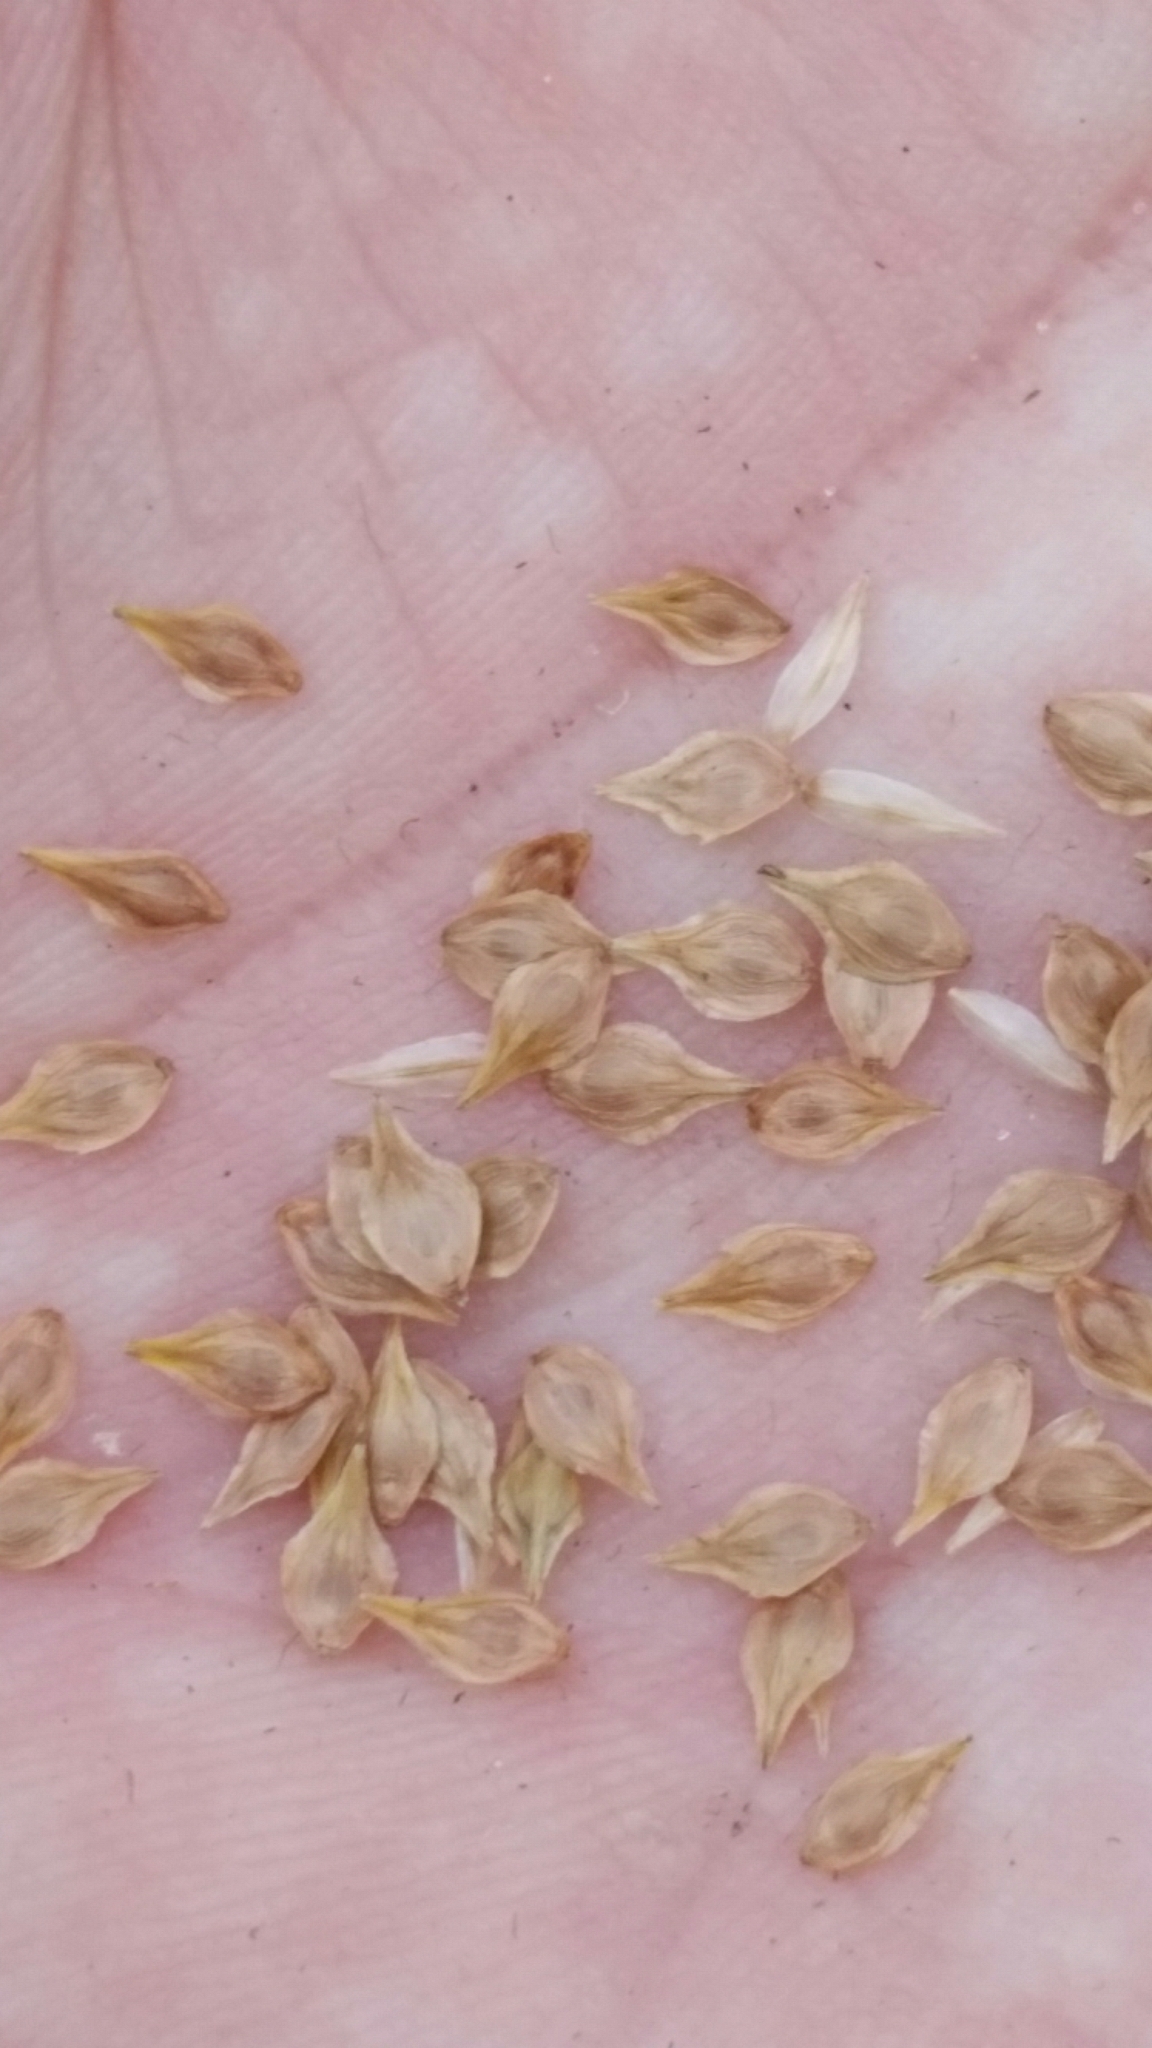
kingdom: Plantae
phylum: Tracheophyta
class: Liliopsida
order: Poales
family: Cyperaceae
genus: Carex
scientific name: Carex longii
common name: Long's sedge
